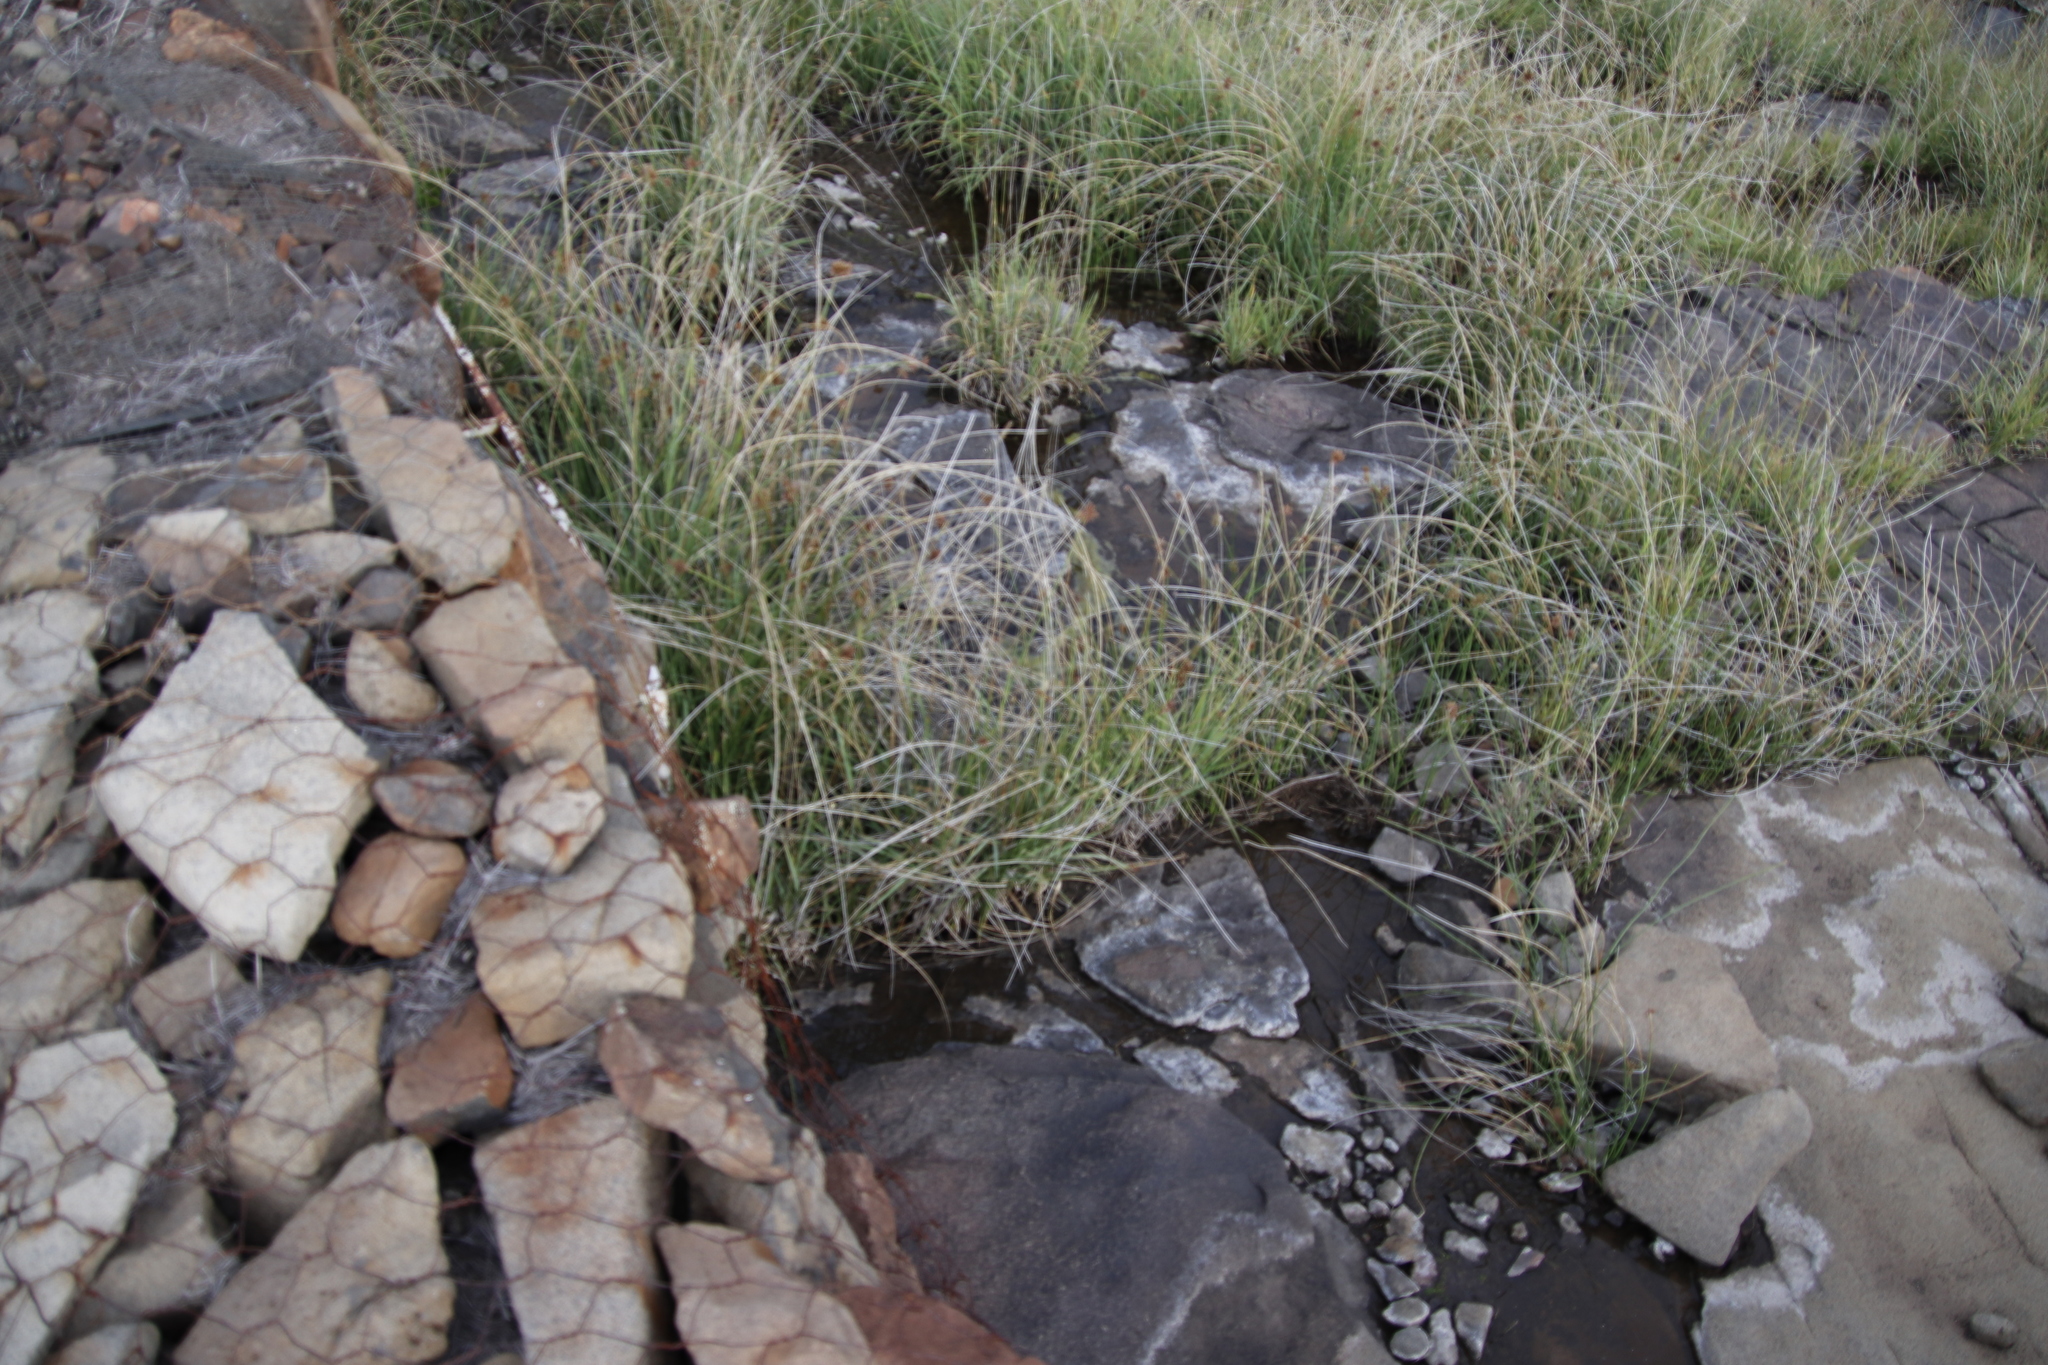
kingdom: Plantae
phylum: Tracheophyta
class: Liliopsida
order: Poales
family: Cyperaceae
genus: Cyperus
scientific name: Cyperus marginatus
